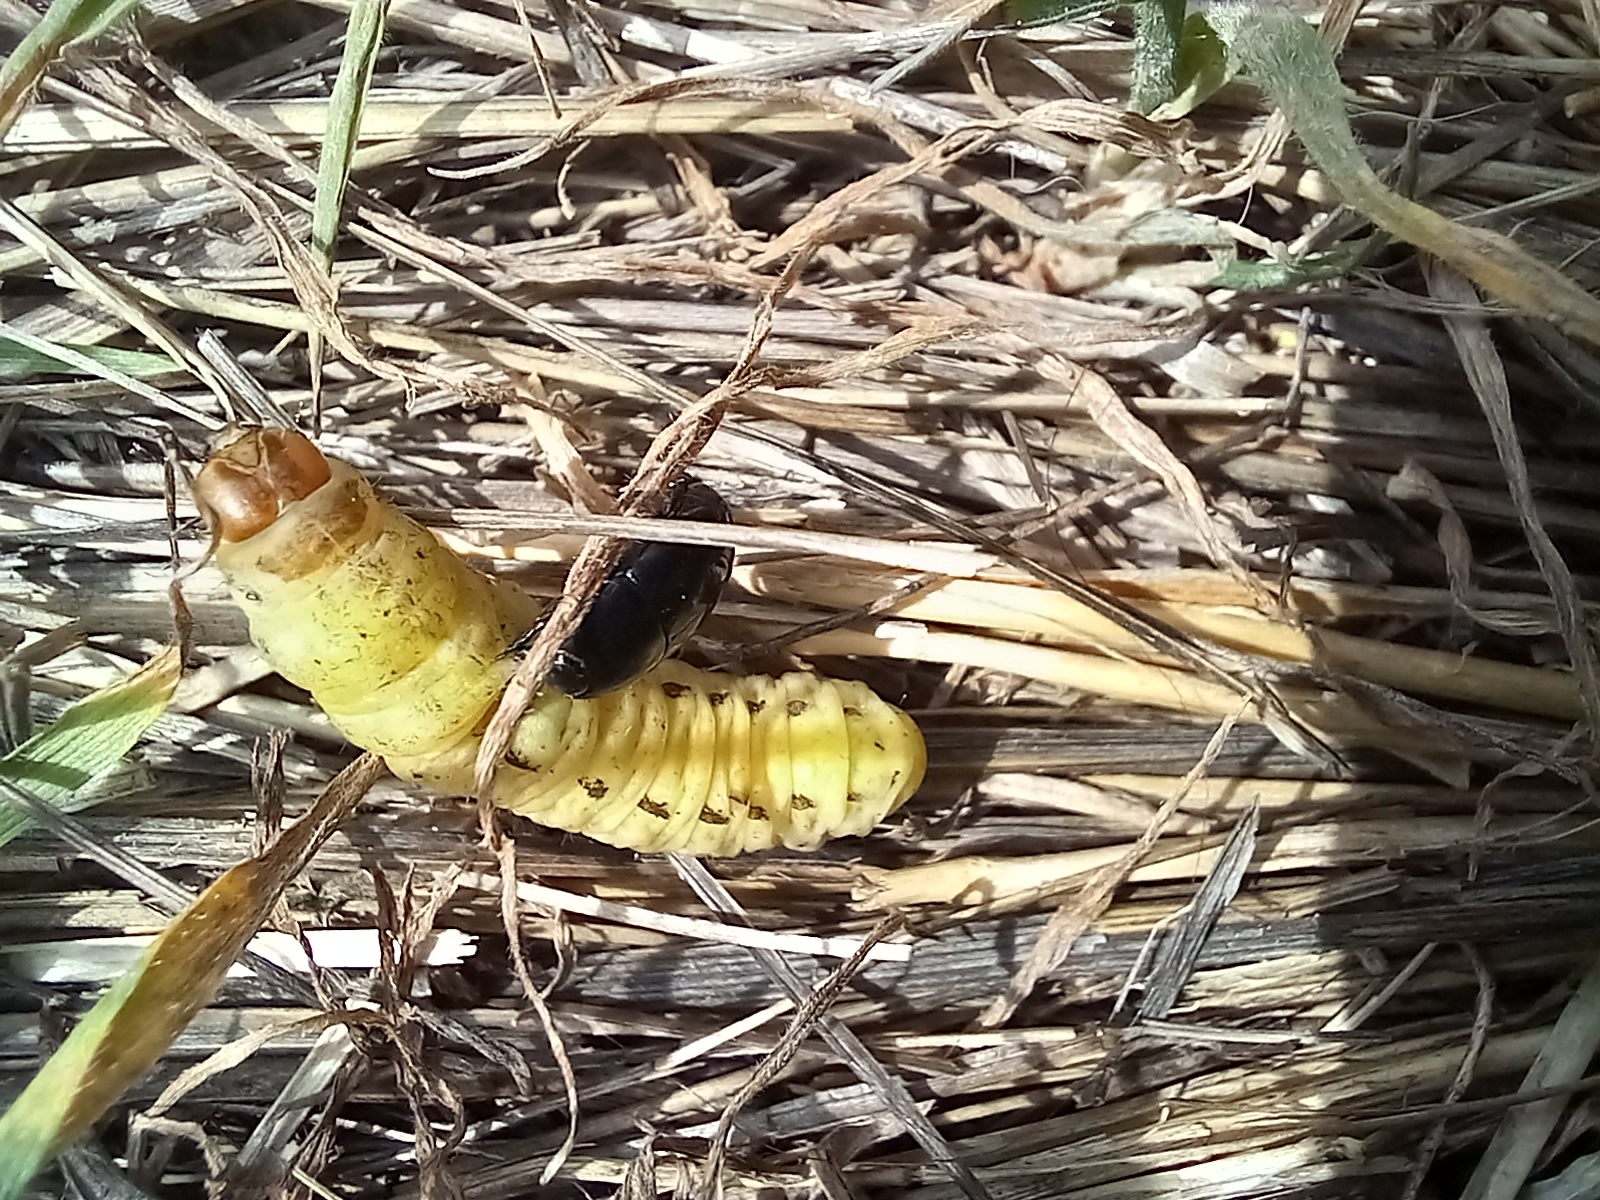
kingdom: Animalia
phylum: Arthropoda
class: Insecta
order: Lepidoptera
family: Noctuidae
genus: Noctua
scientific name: Noctua pronuba
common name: Large yellow underwing
